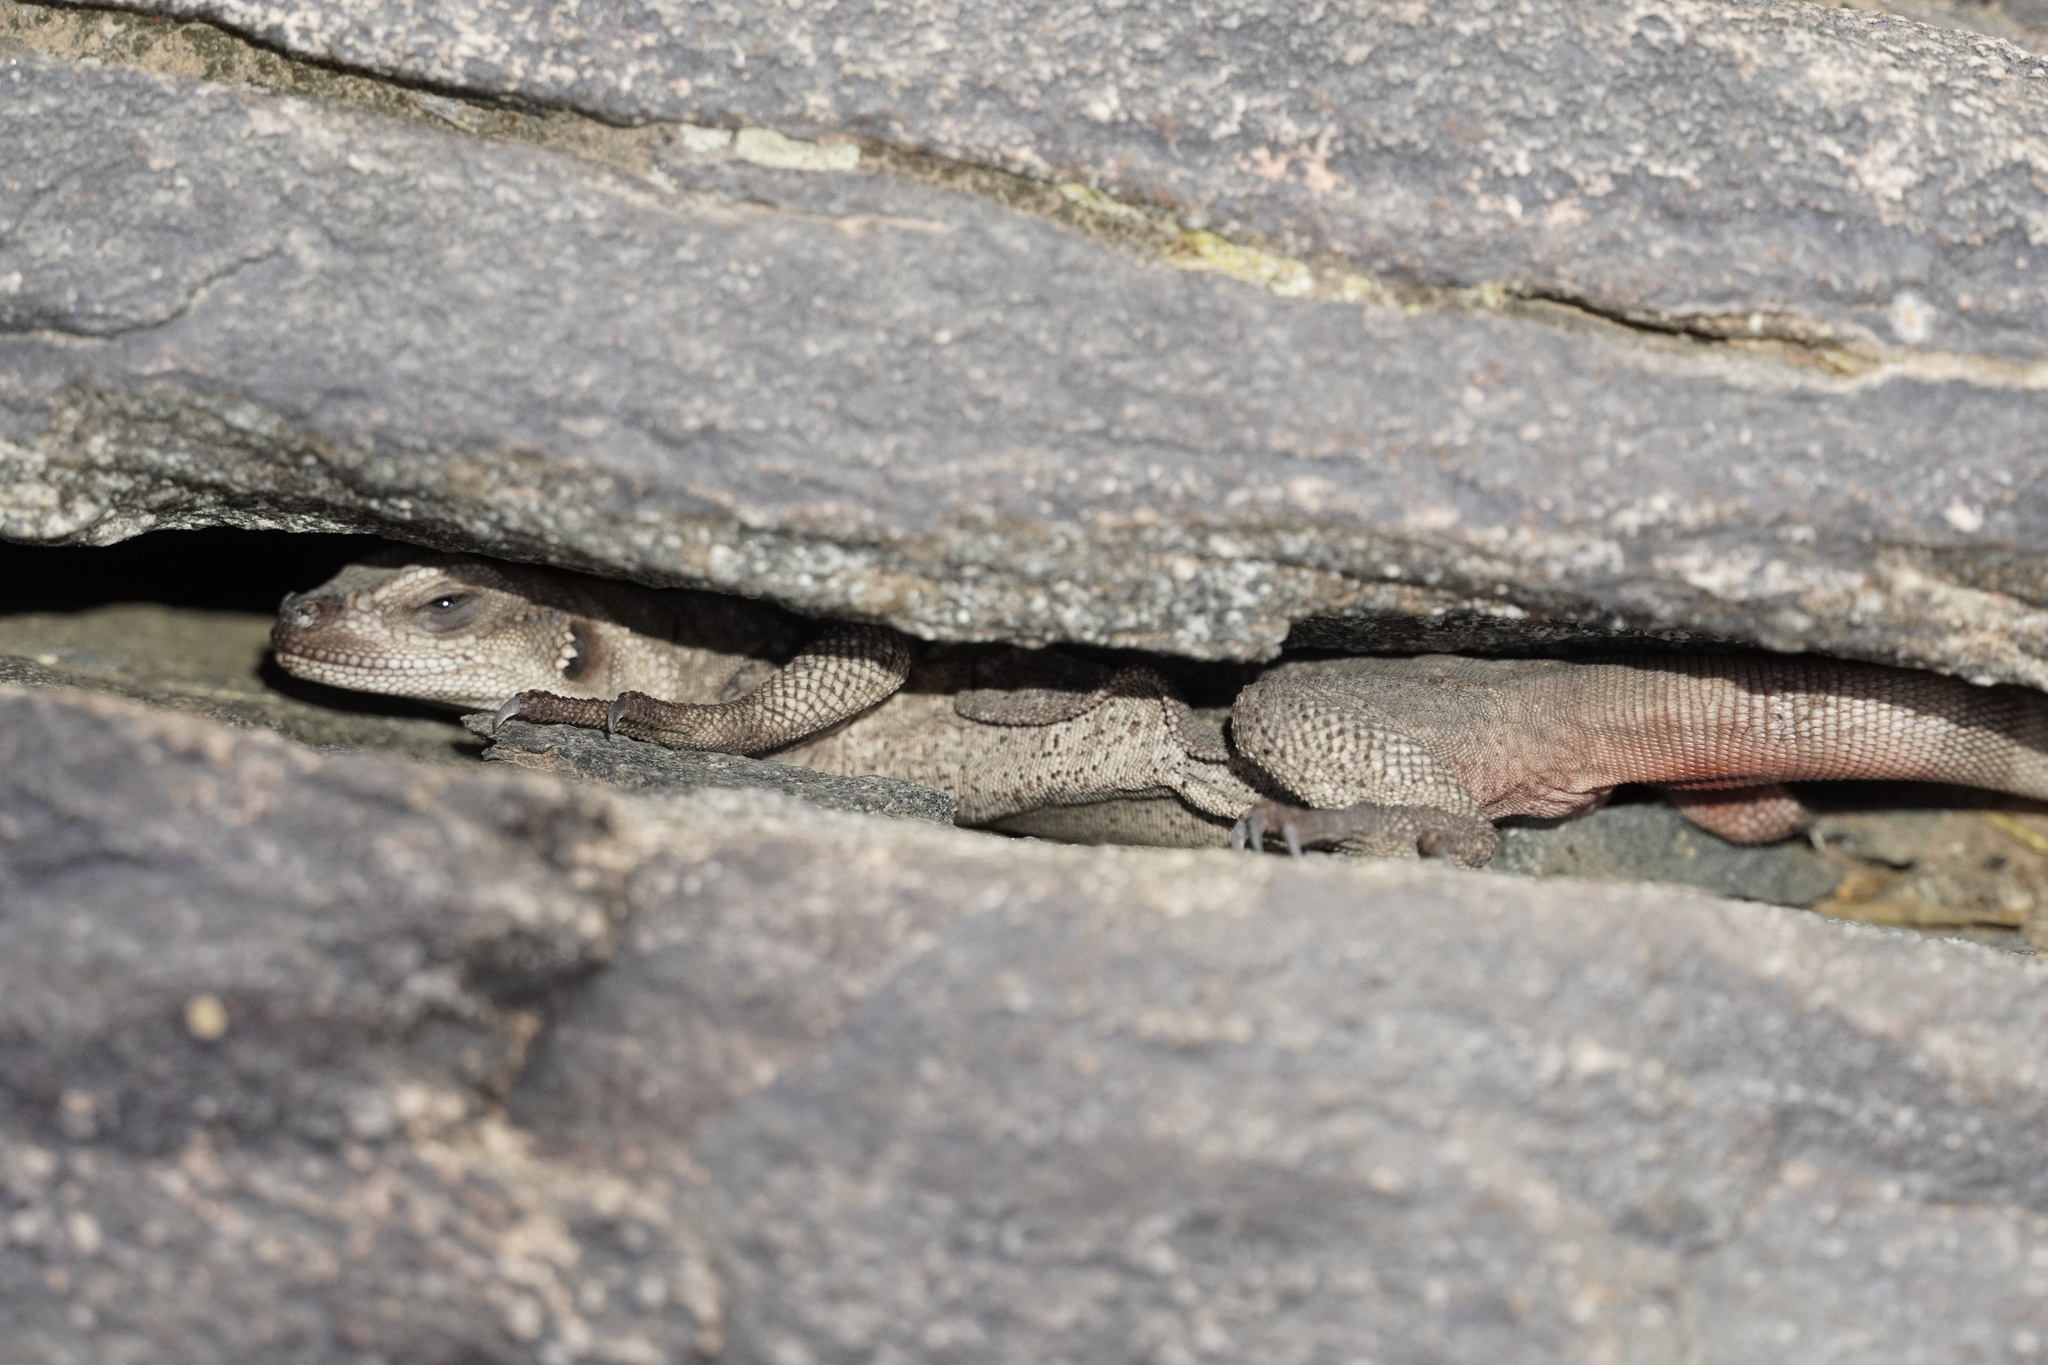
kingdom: Animalia
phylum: Chordata
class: Squamata
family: Iguanidae
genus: Sauromalus
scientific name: Sauromalus ater
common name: Northern chuckwalla
